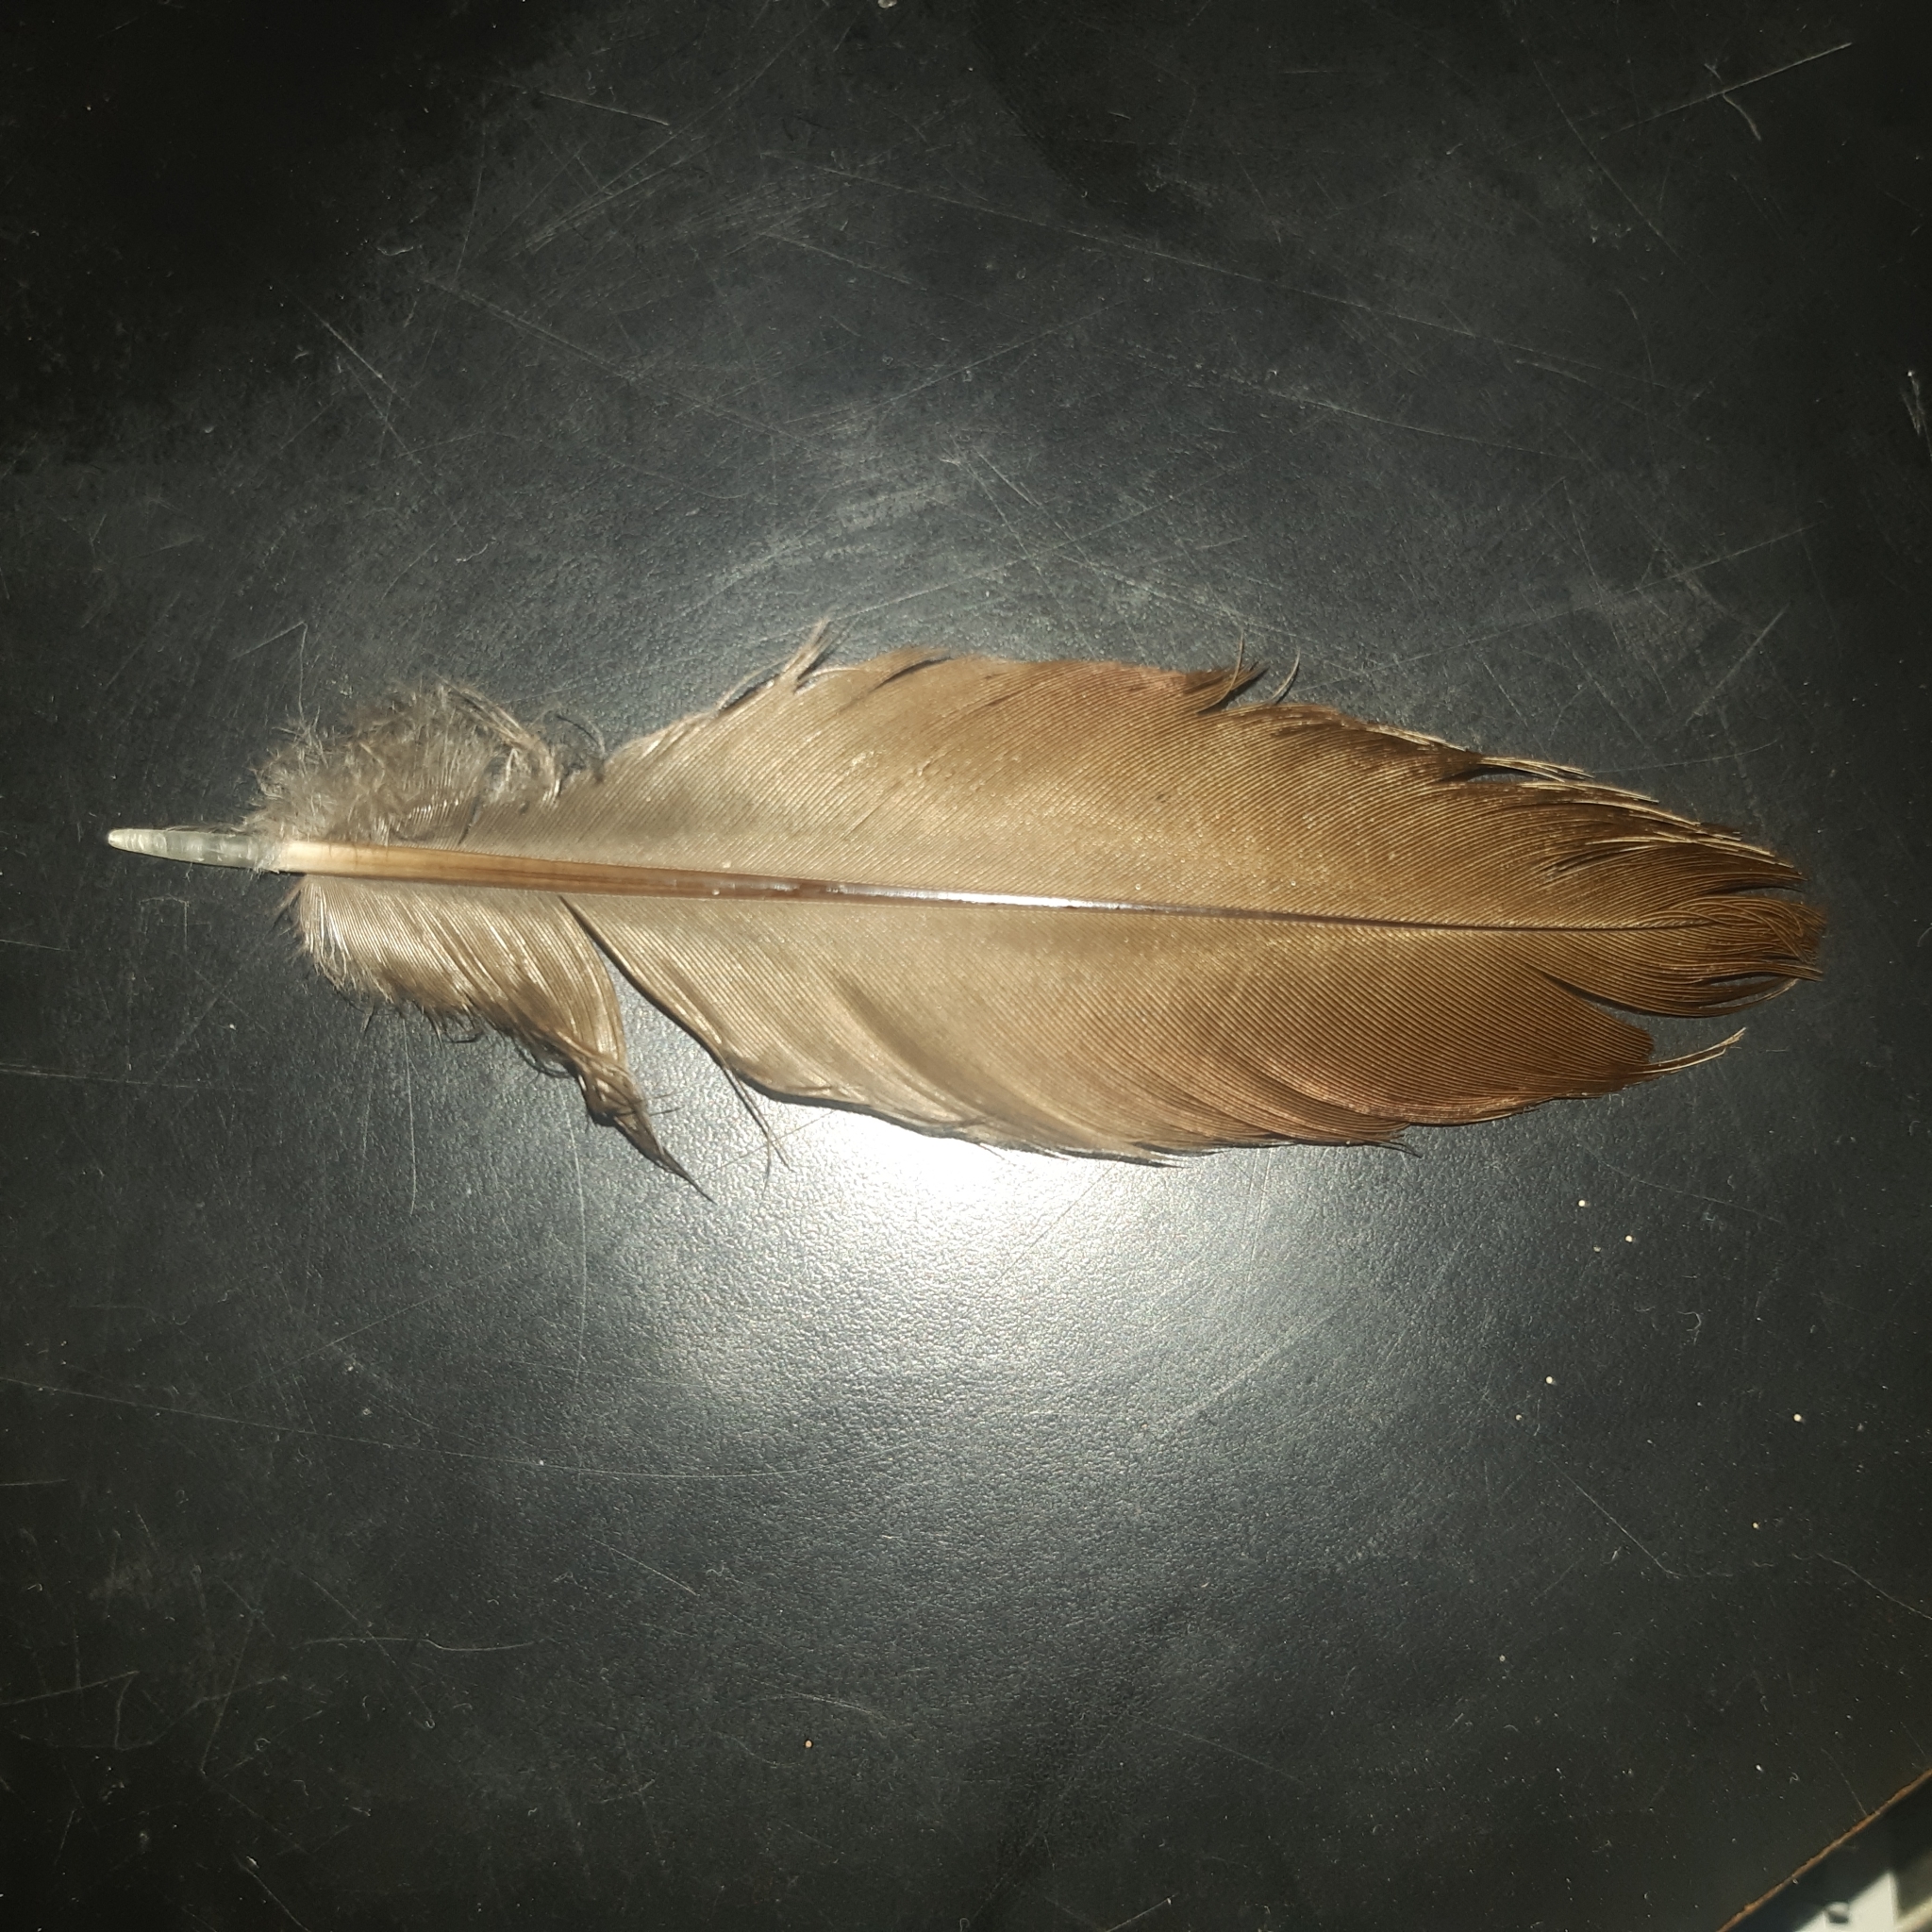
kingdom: Animalia
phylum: Chordata
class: Aves
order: Galliformes
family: Cracidae
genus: Ortalis
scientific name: Ortalis leucogastra
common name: White-bellied chachalaca
